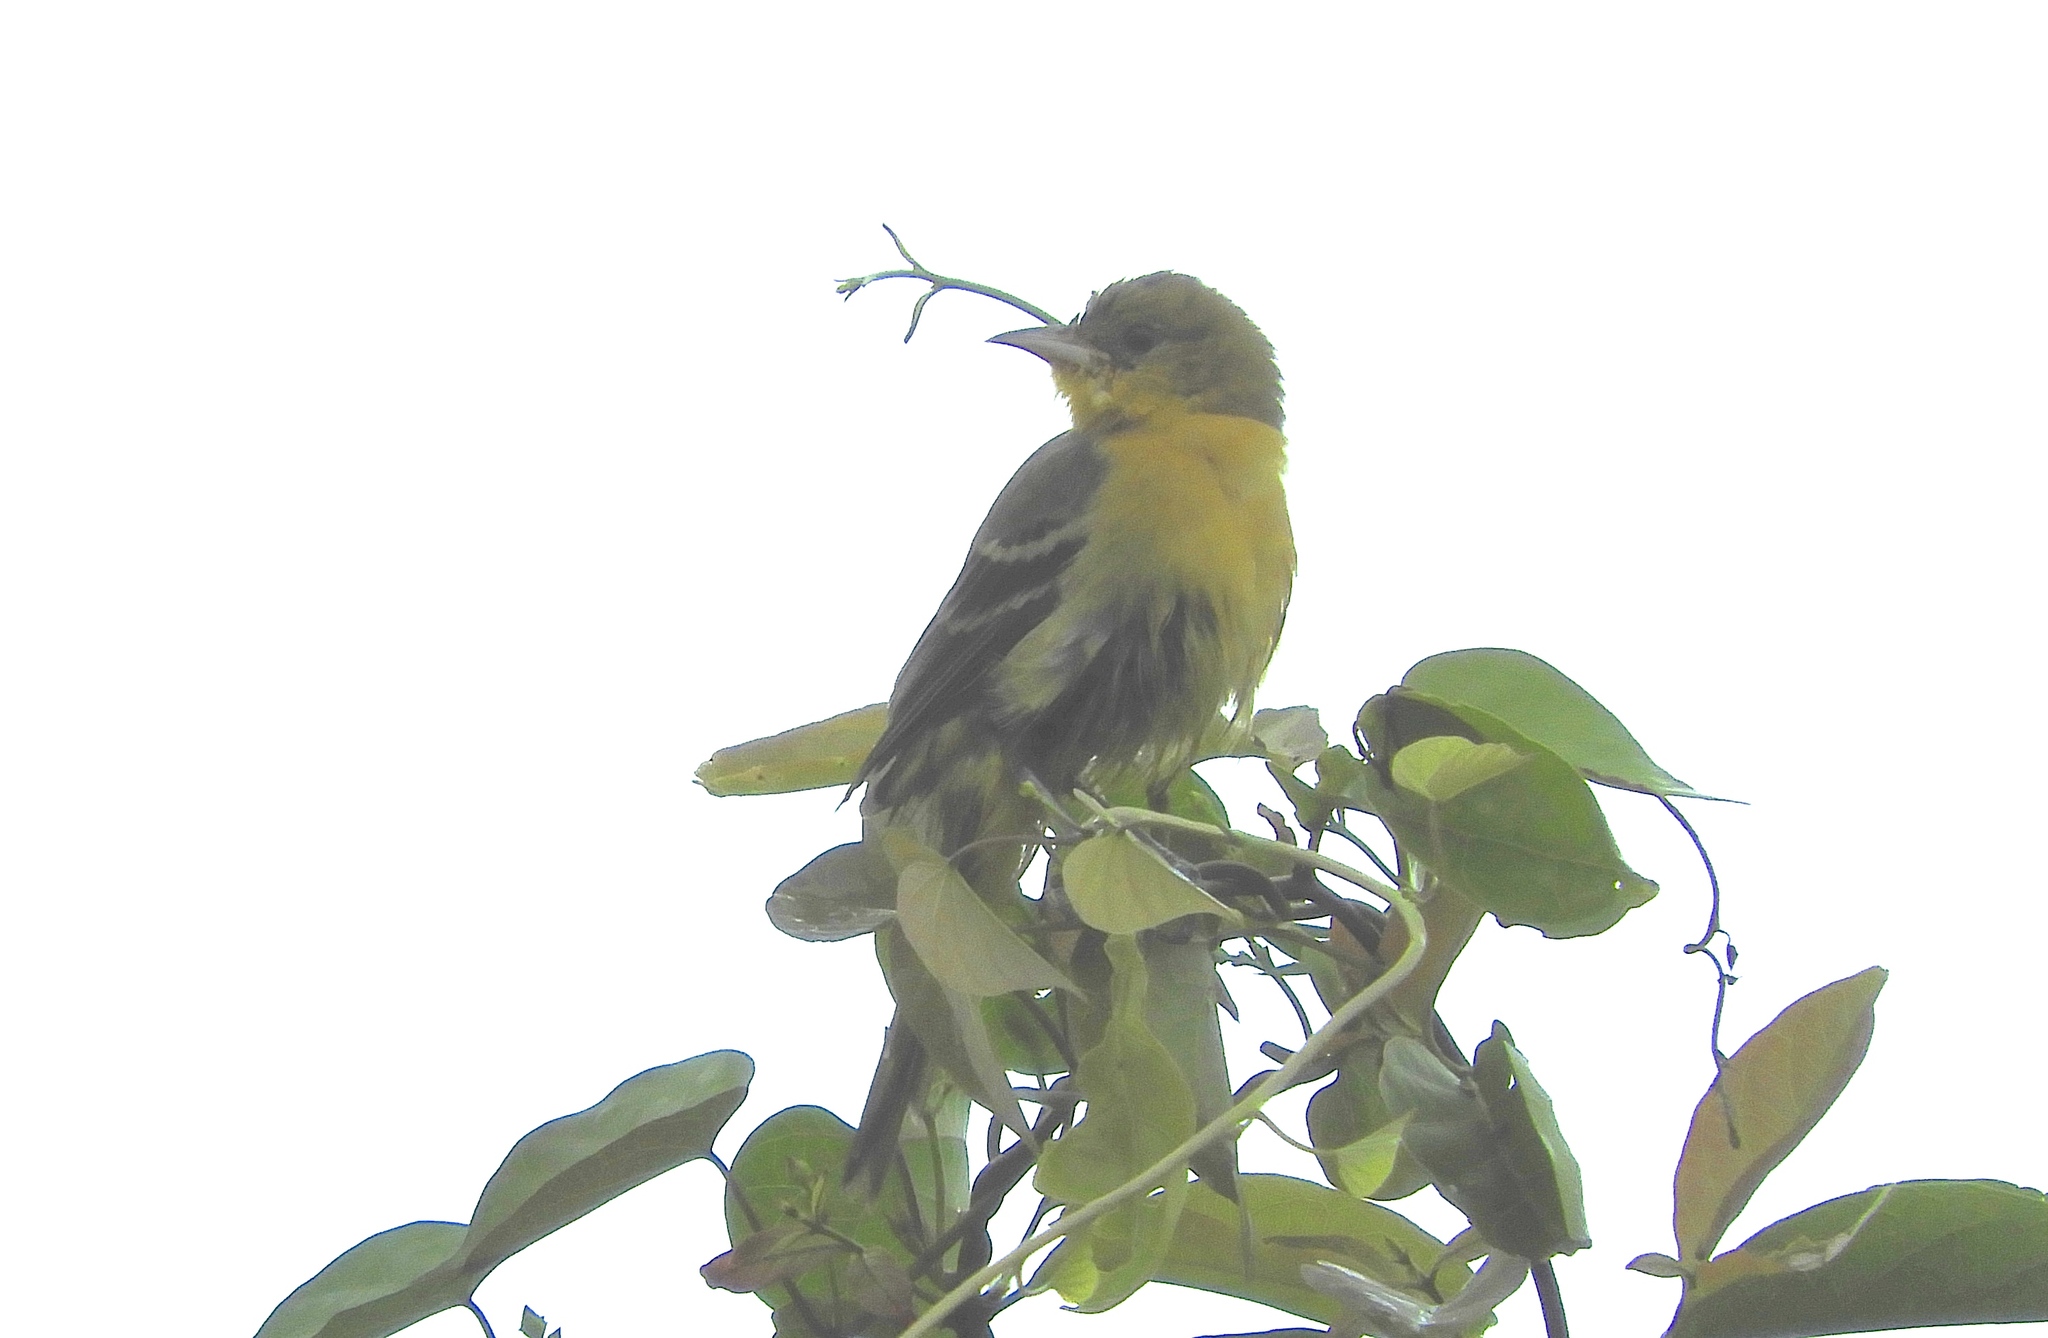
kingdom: Animalia
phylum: Chordata
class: Aves
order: Passeriformes
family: Icteridae
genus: Icterus
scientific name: Icterus cucullatus
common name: Hooded oriole
